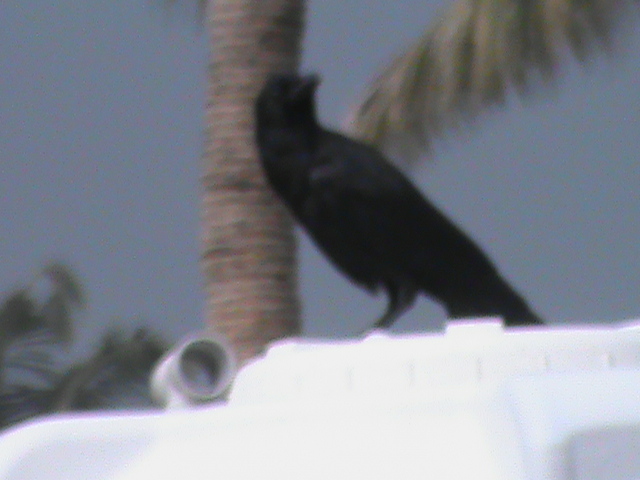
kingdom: Animalia
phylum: Chordata
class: Aves
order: Passeriformes
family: Corvidae
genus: Corvus
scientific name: Corvus macrorhynchos
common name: Large-billed crow
